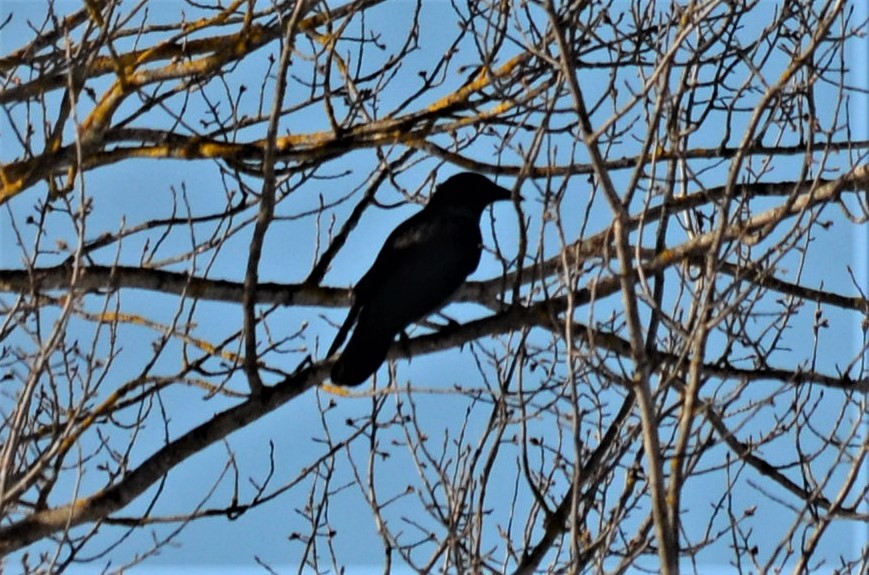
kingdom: Animalia
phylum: Chordata
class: Aves
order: Passeriformes
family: Corvidae
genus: Corvus
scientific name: Corvus corone
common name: Carrion crow
